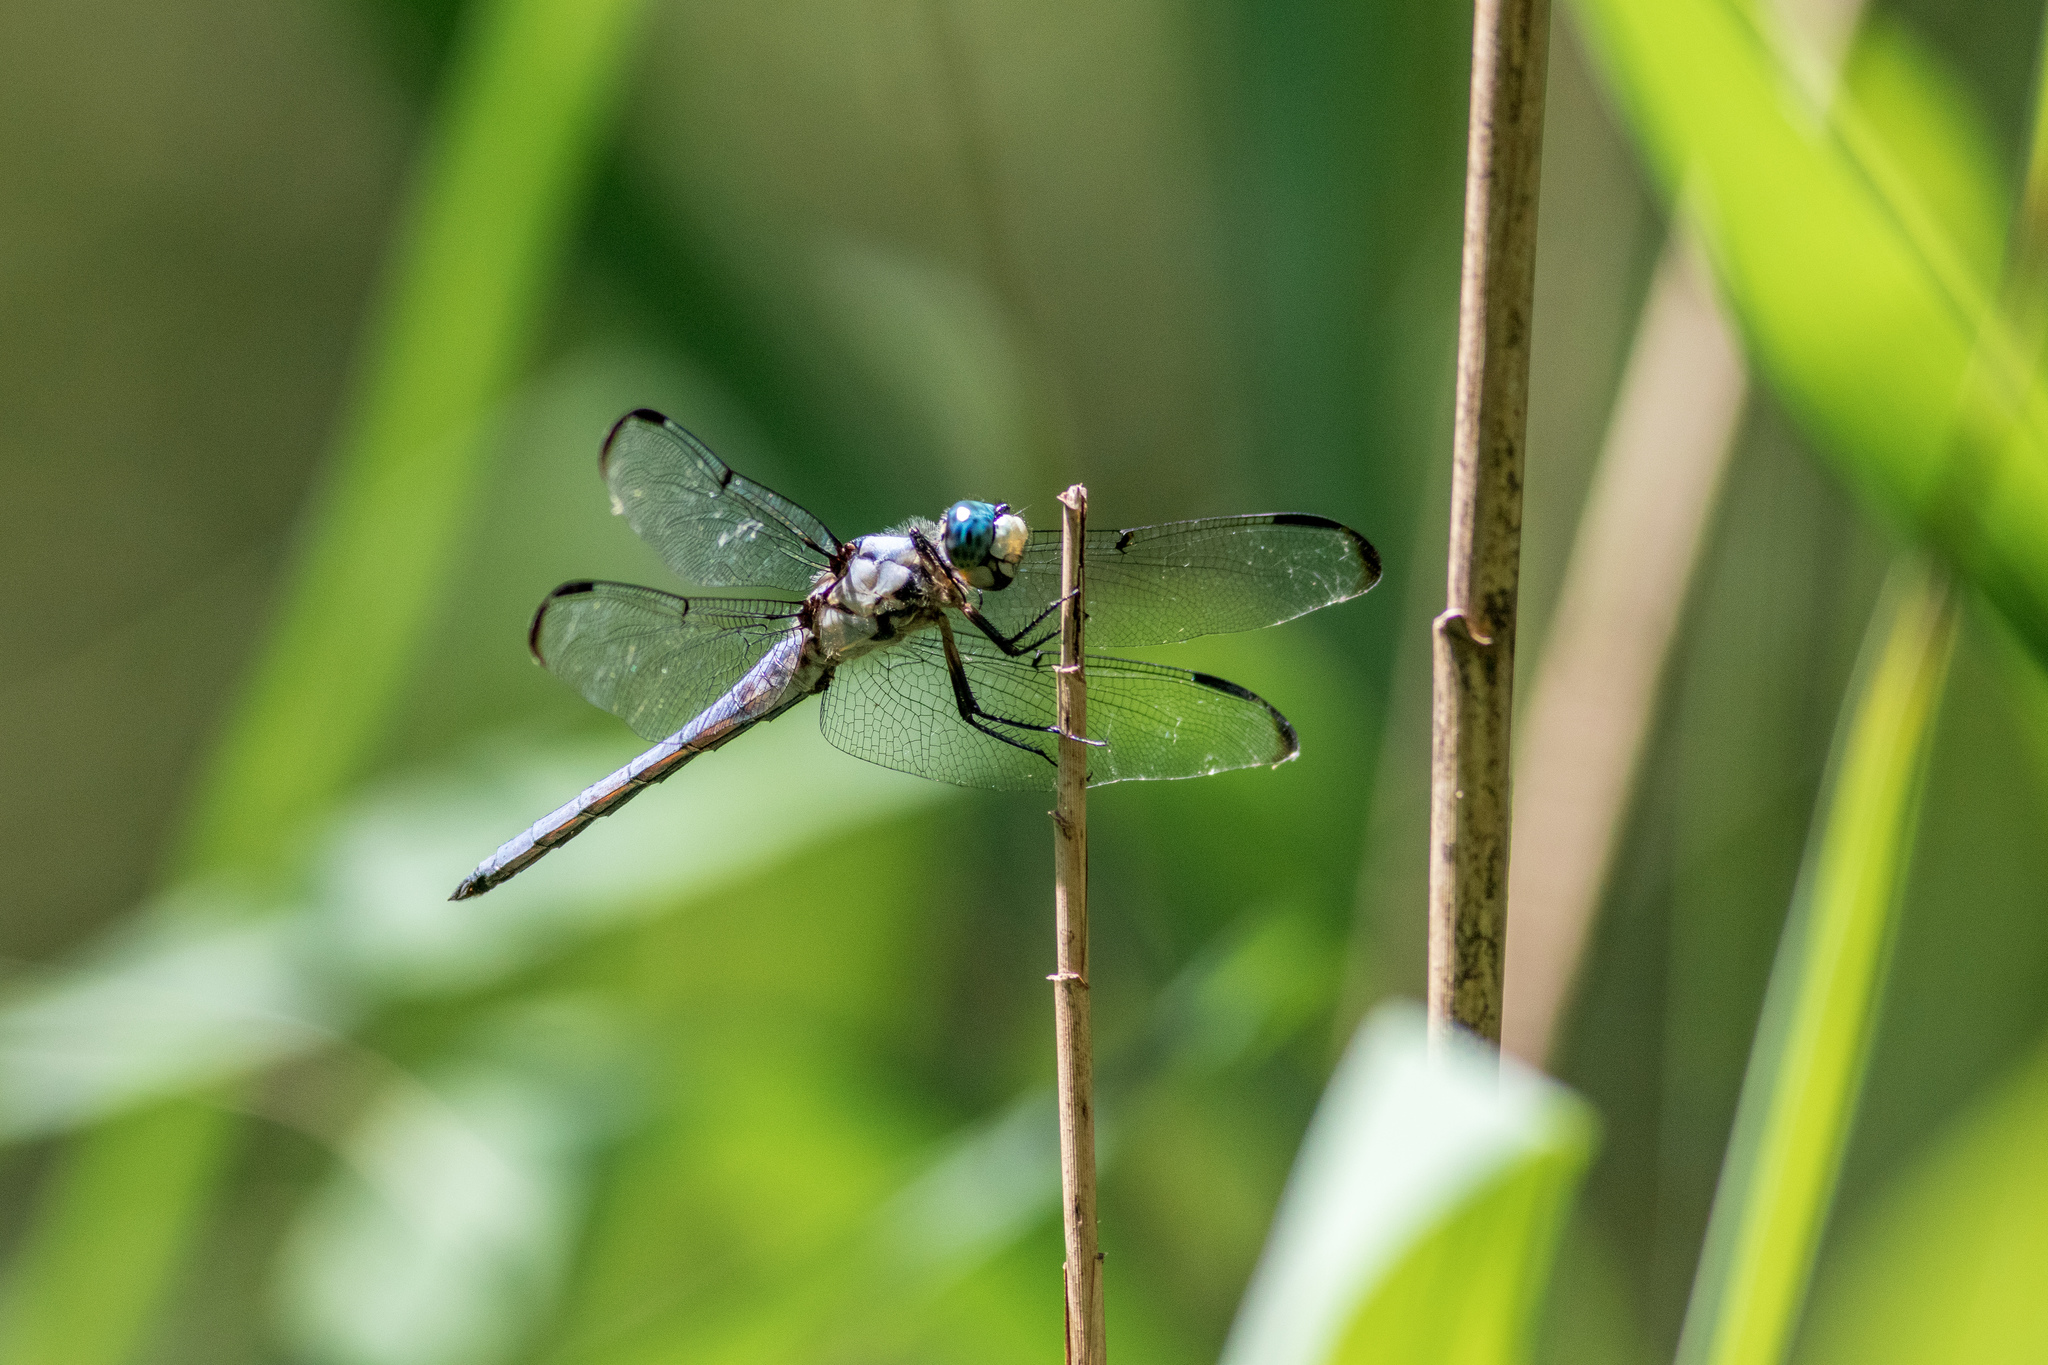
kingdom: Animalia
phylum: Arthropoda
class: Insecta
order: Odonata
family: Libellulidae
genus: Libellula
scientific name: Libellula vibrans
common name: Great blue skimmer
